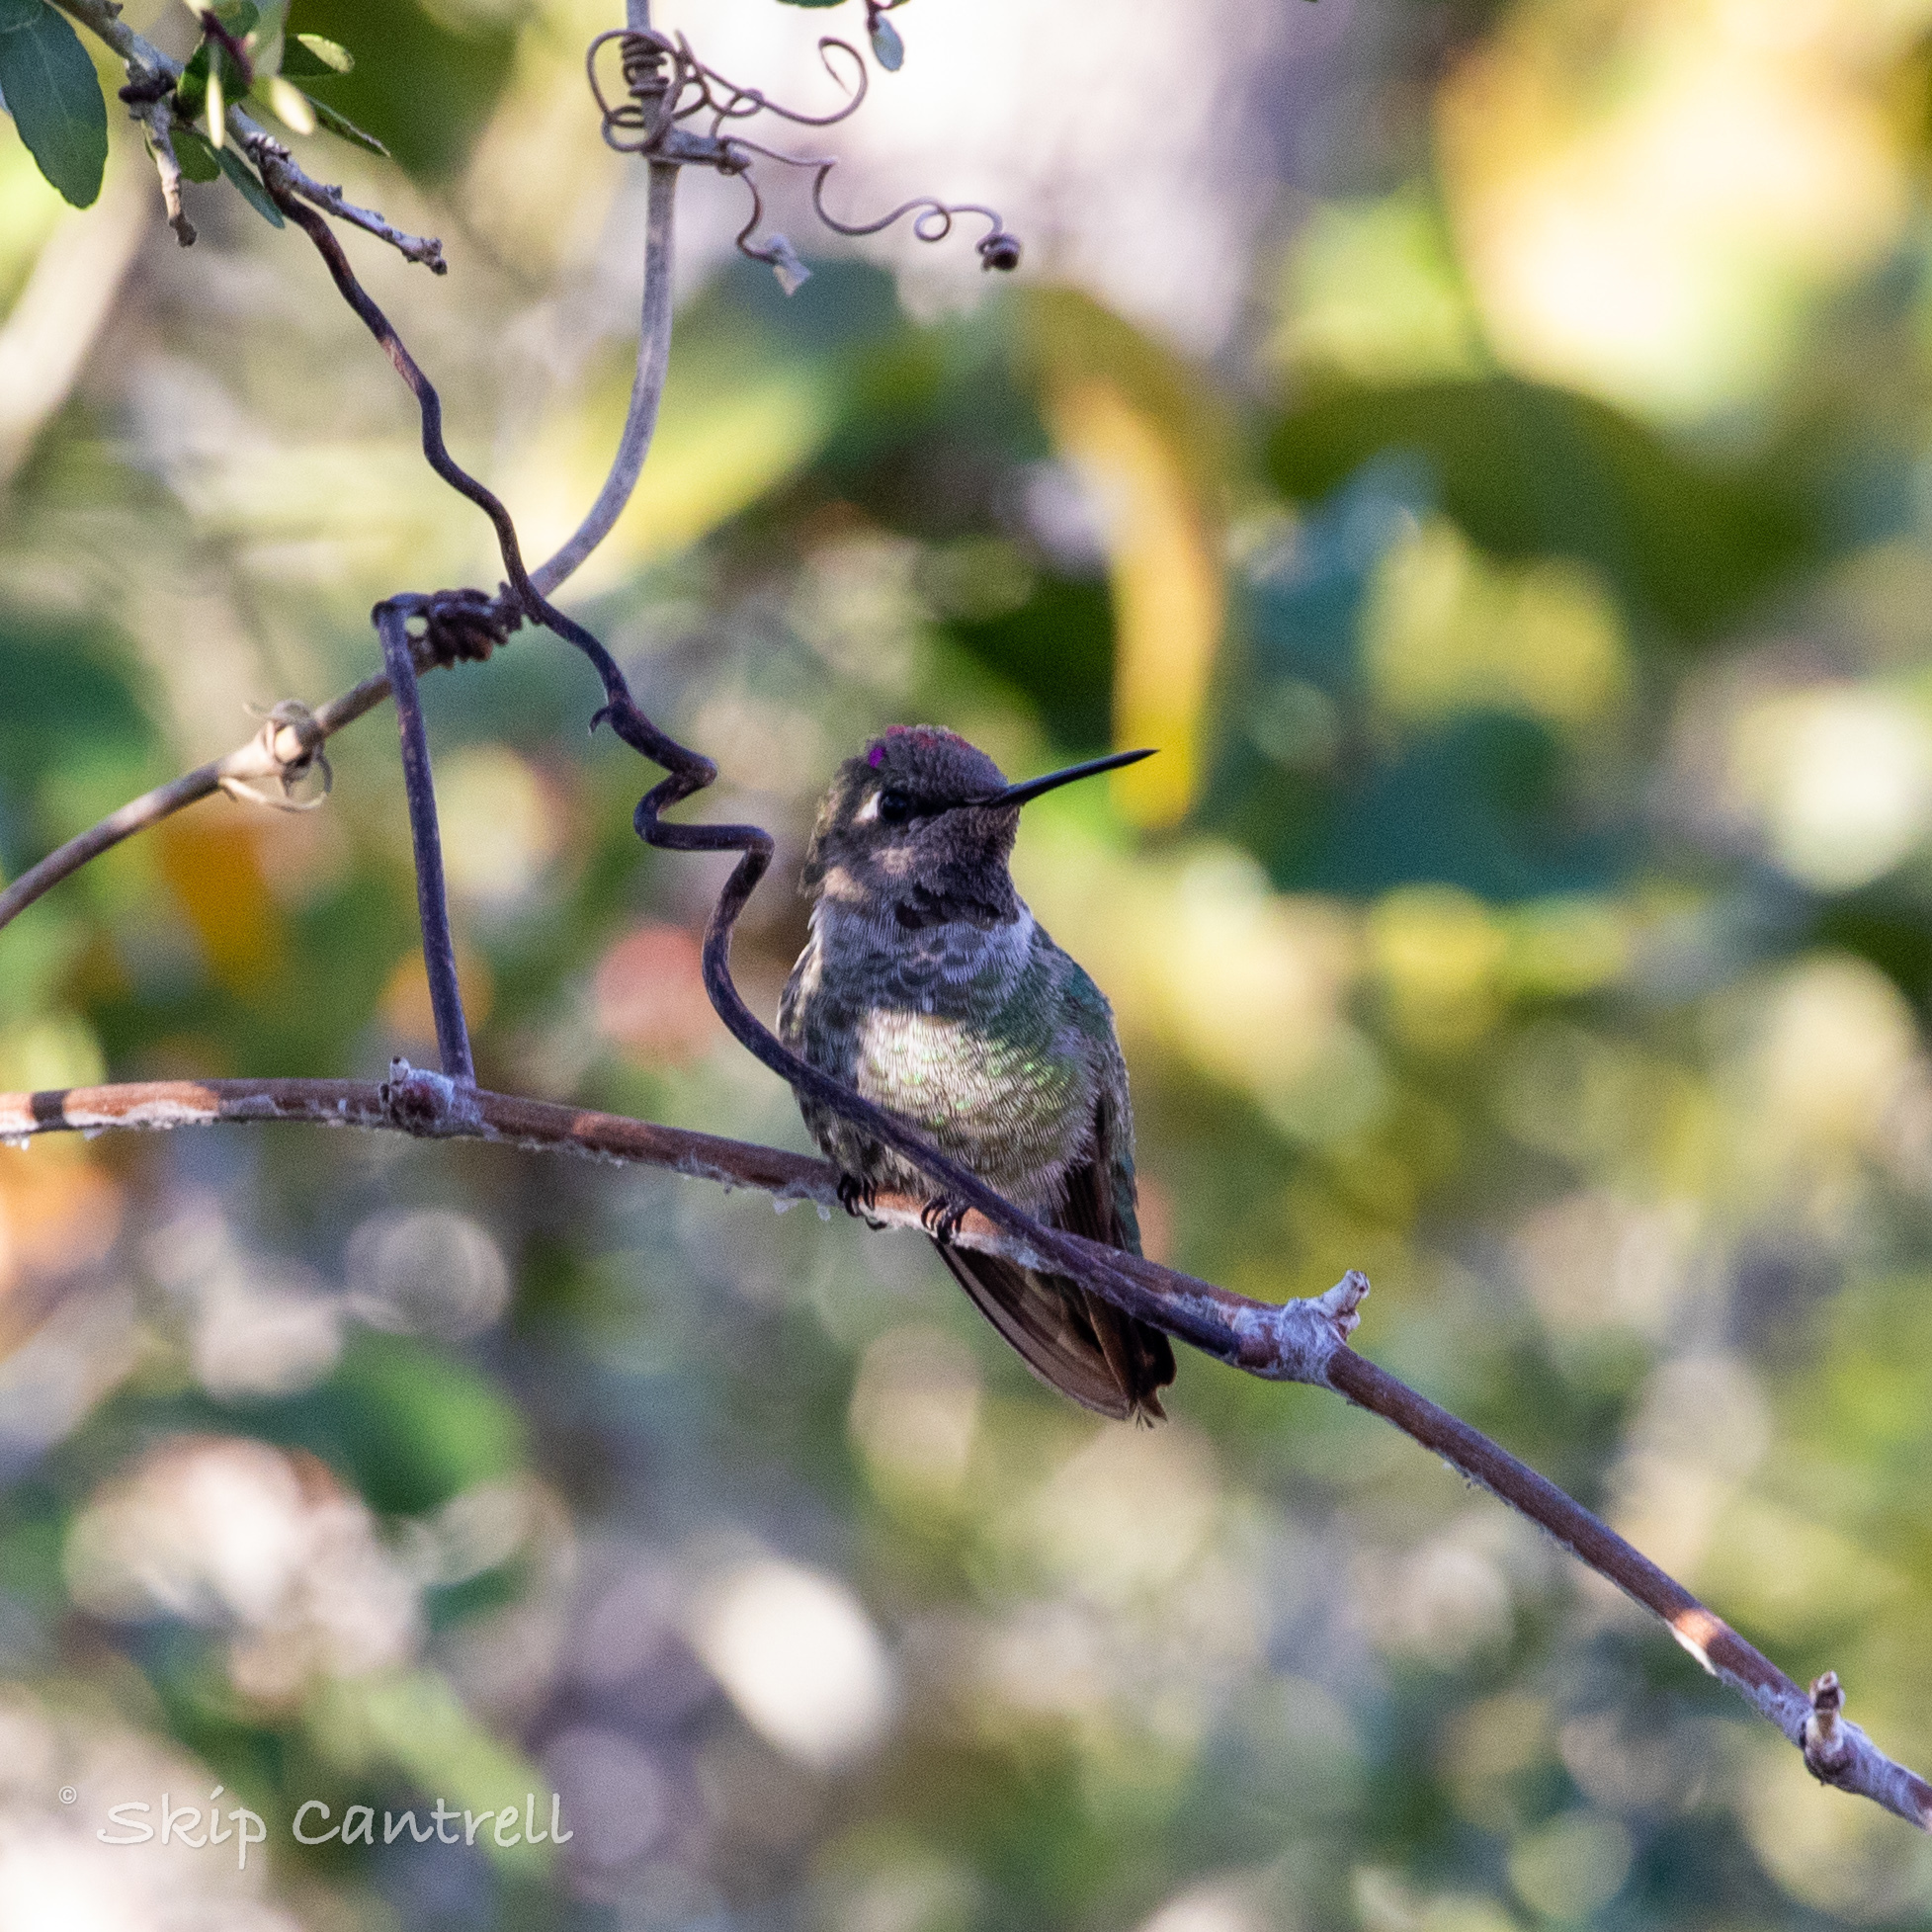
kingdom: Animalia
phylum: Chordata
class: Aves
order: Apodiformes
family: Trochilidae
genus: Calypte
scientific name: Calypte anna
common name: Anna's hummingbird
